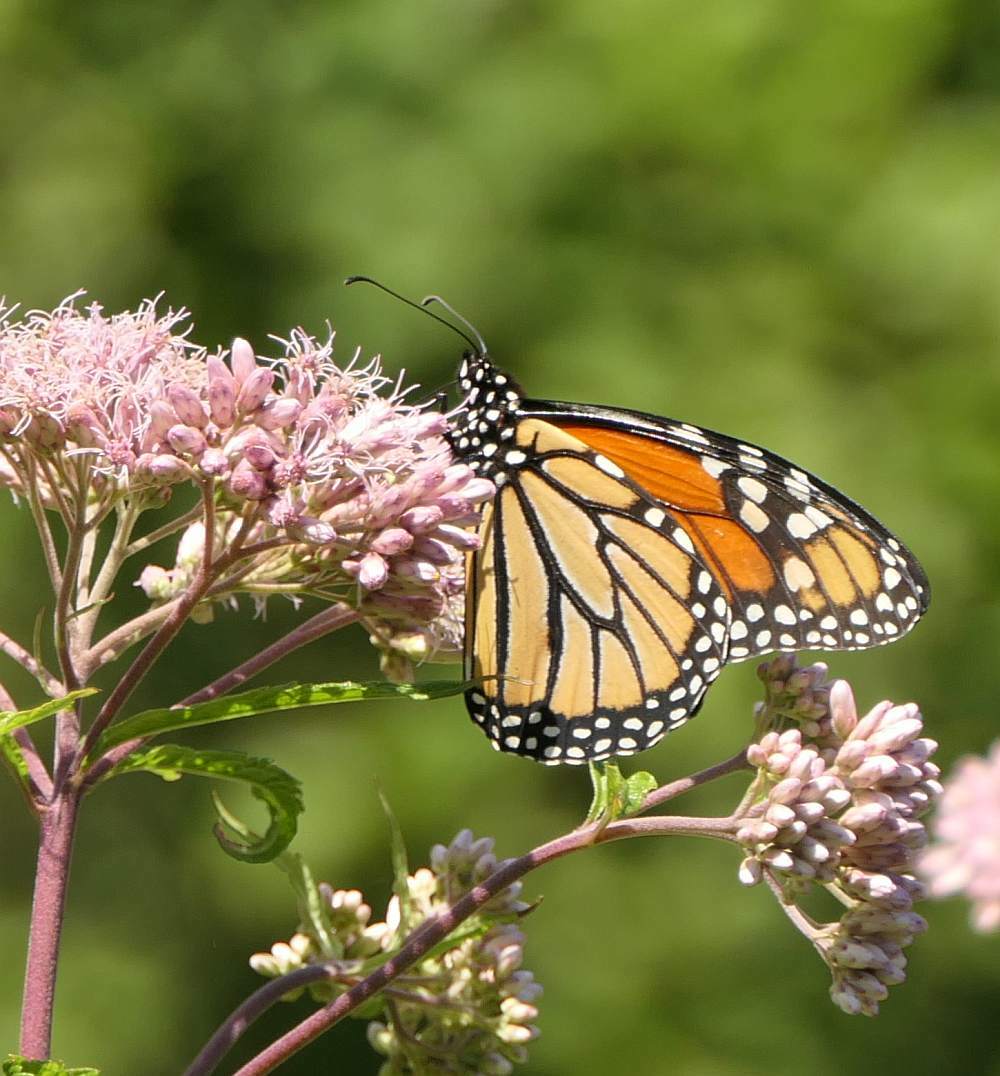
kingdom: Animalia
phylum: Arthropoda
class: Insecta
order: Lepidoptera
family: Nymphalidae
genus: Danaus
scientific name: Danaus plexippus
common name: Monarch
